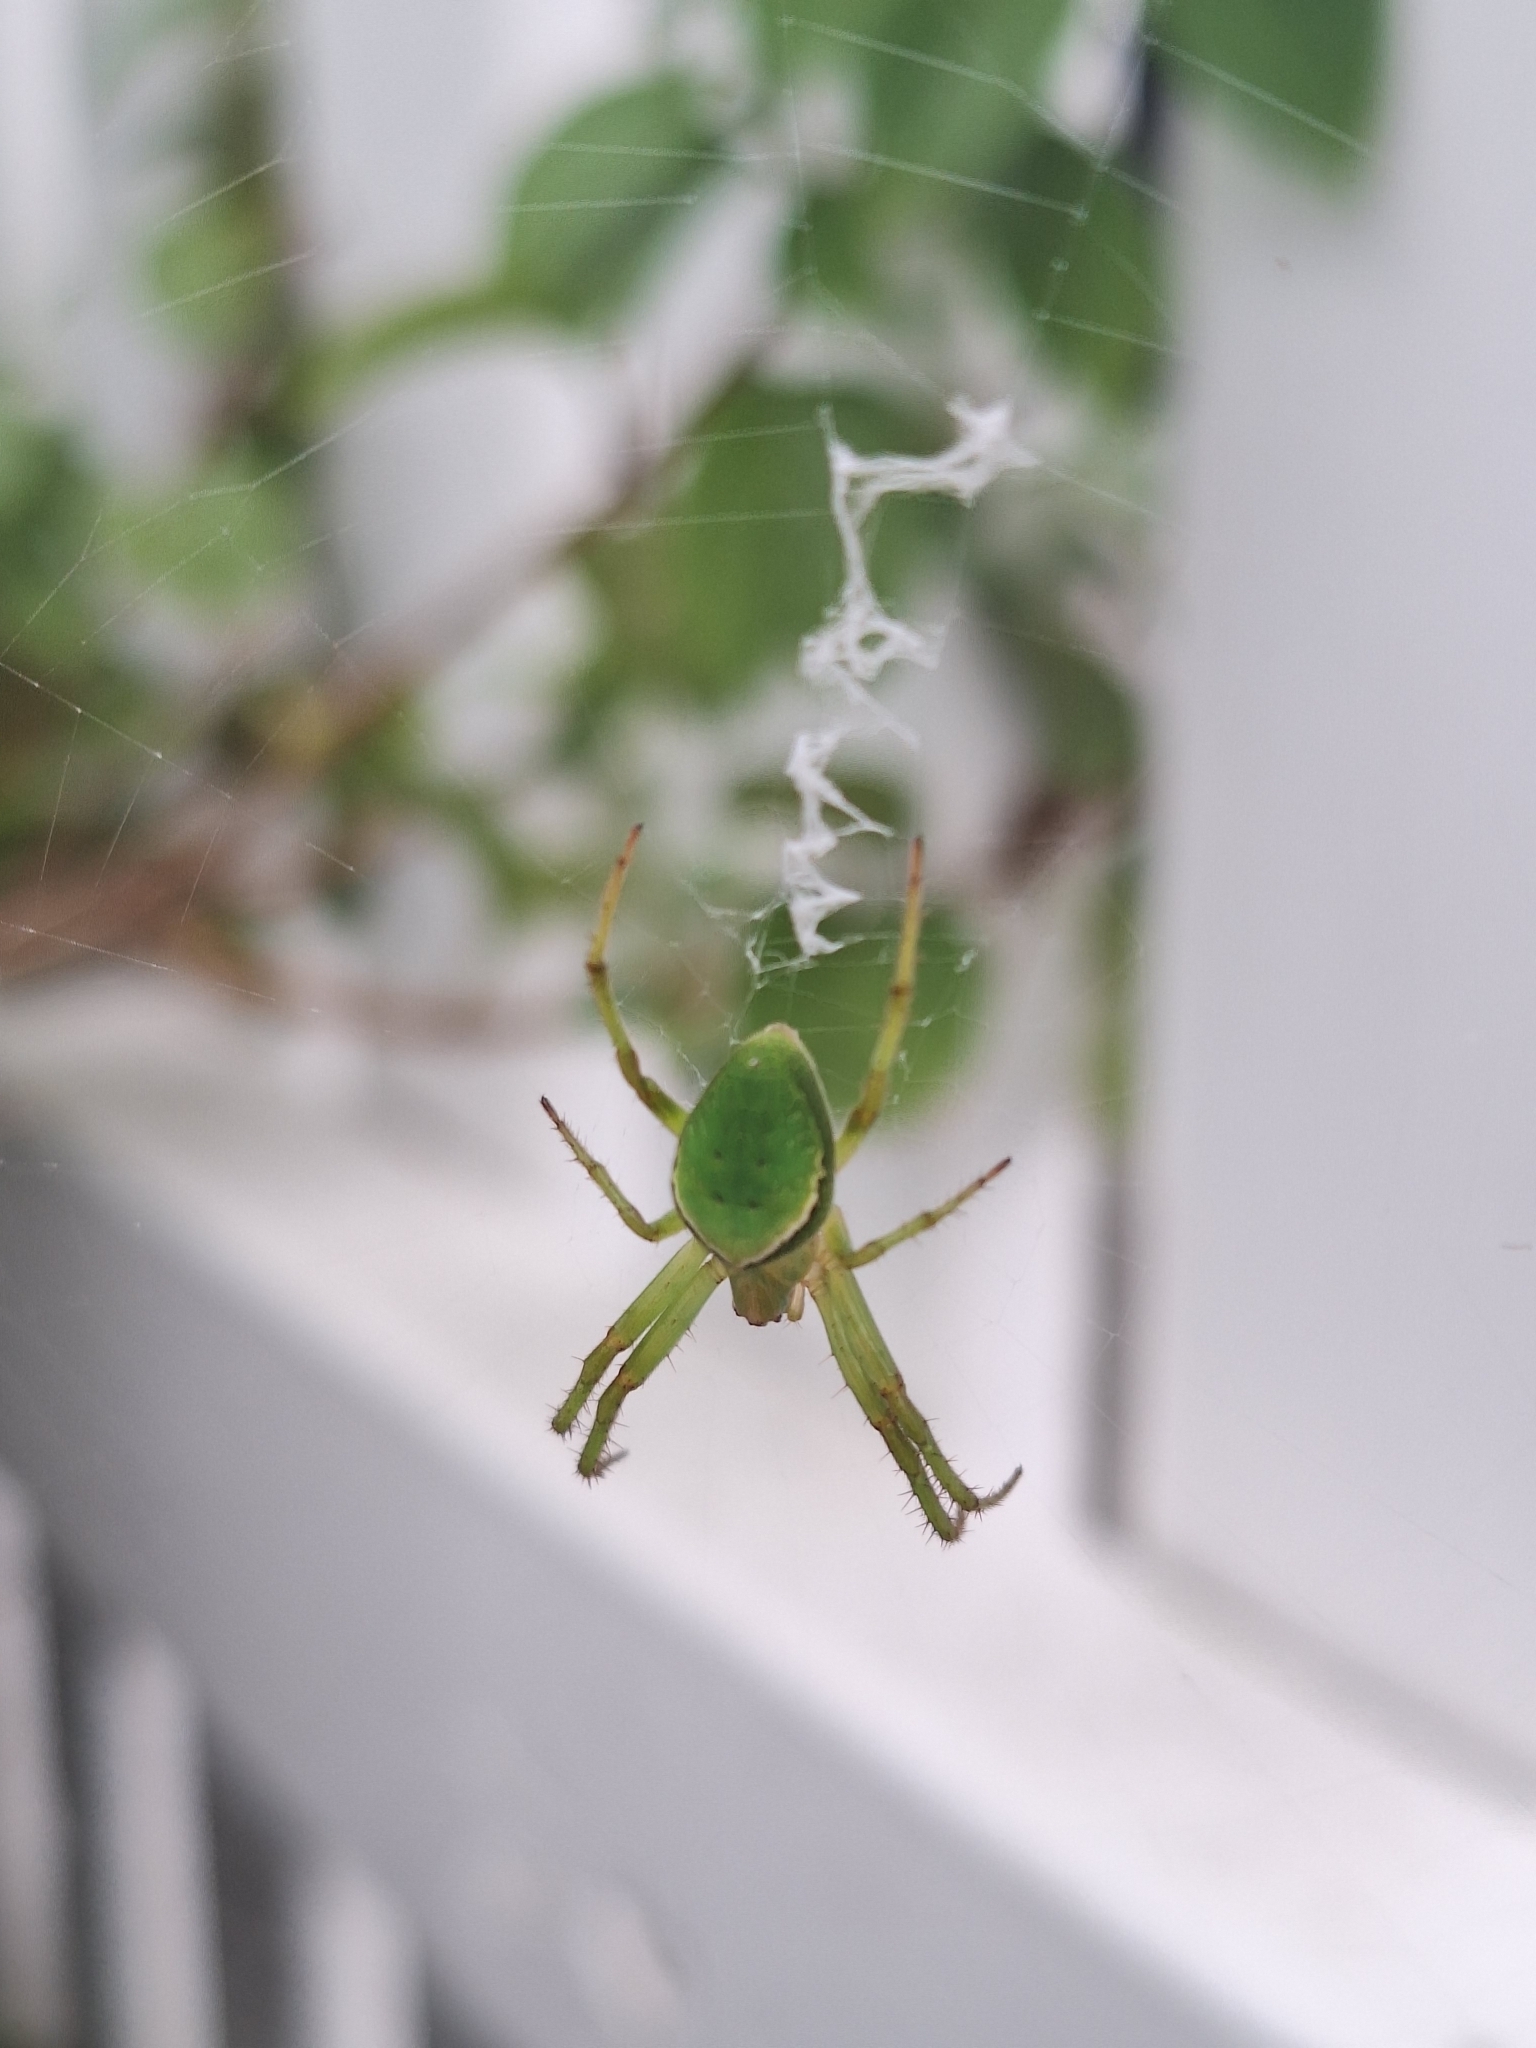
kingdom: Animalia
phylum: Arthropoda
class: Arachnida
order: Araneae
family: Araneidae
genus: Colaranea
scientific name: Colaranea viriditas
